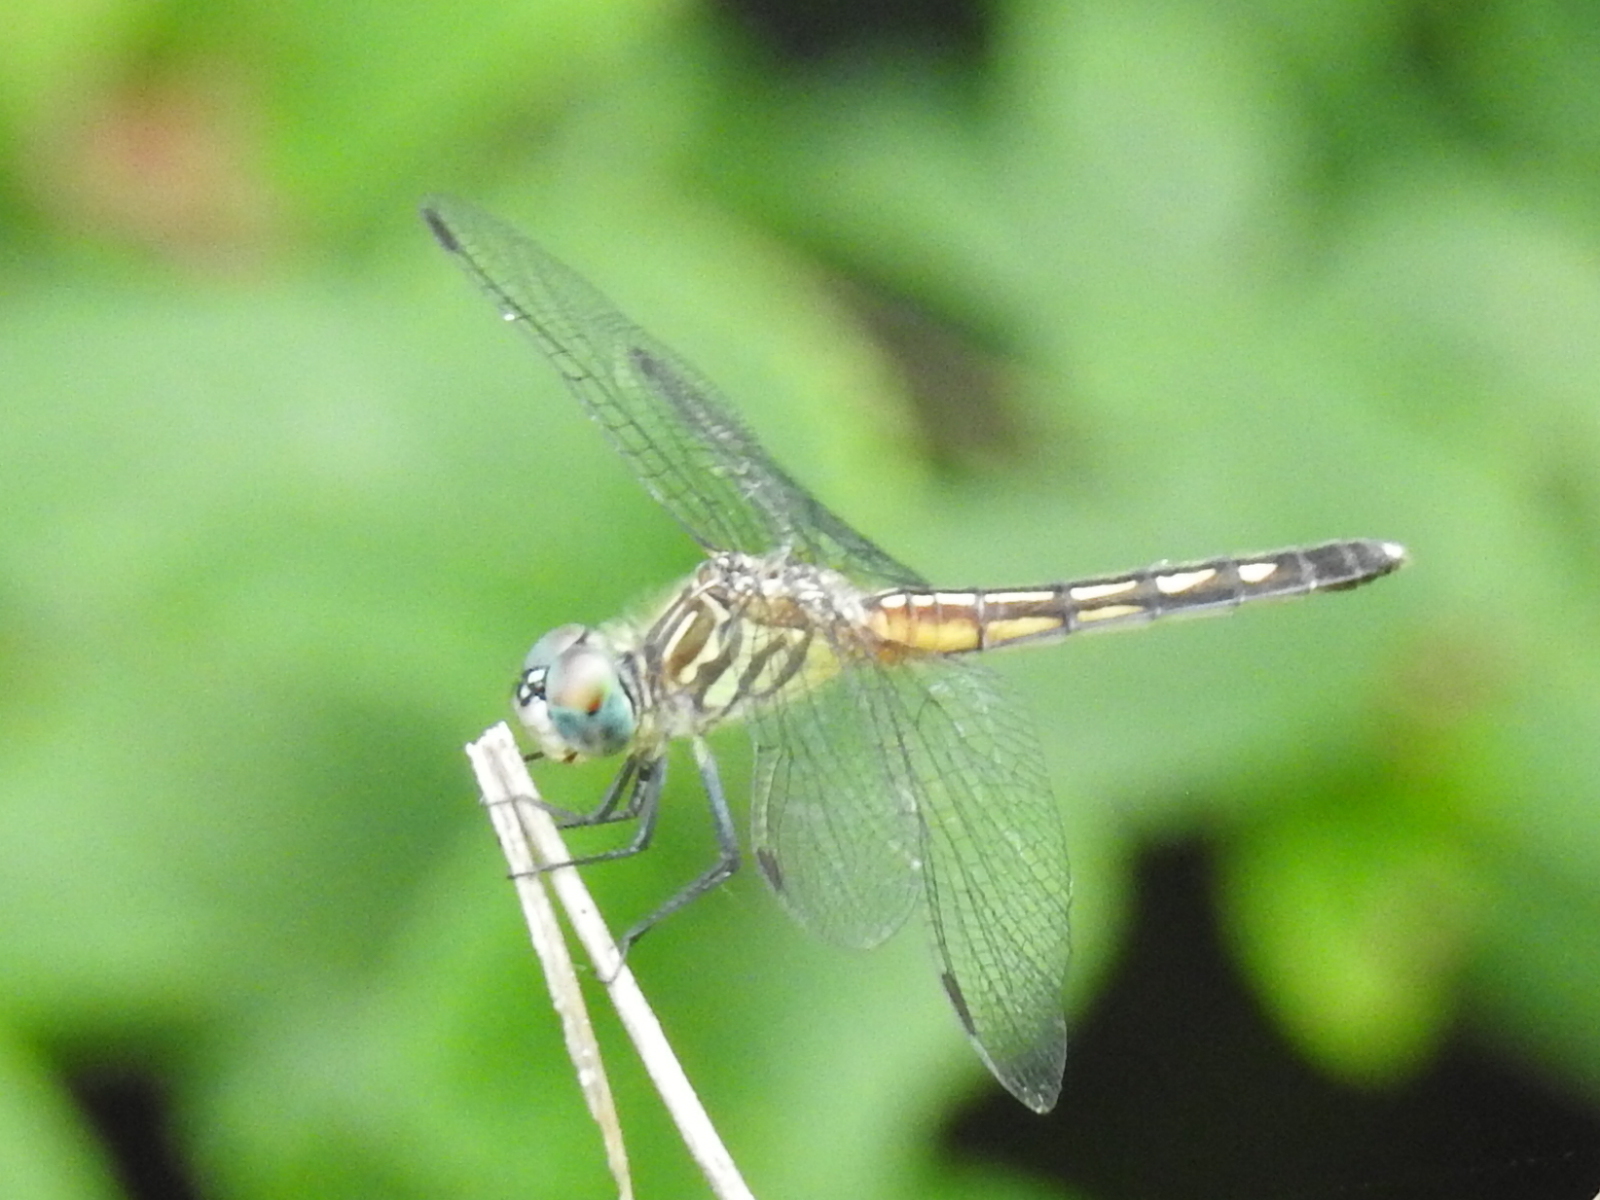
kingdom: Animalia
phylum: Arthropoda
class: Insecta
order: Odonata
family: Libellulidae
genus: Pachydiplax
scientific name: Pachydiplax longipennis
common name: Blue dasher
